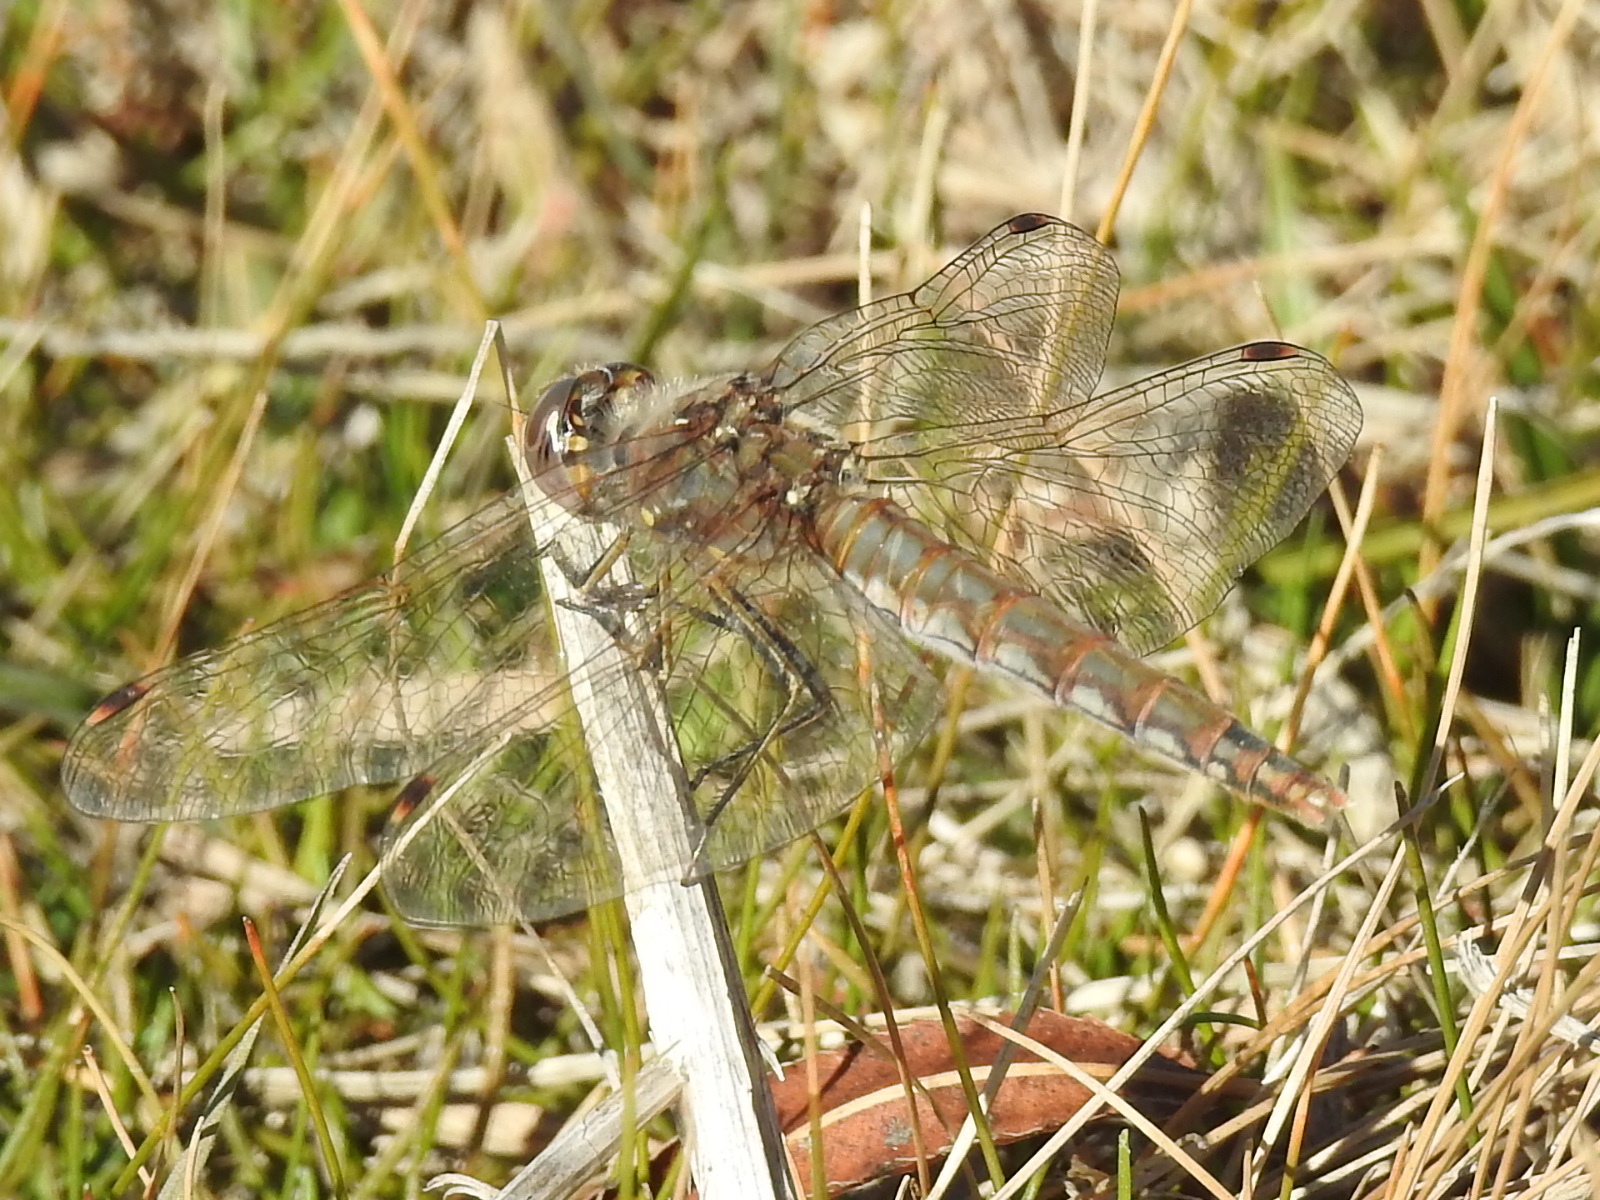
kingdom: Animalia
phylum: Arthropoda
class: Insecta
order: Odonata
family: Libellulidae
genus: Sympetrum
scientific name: Sympetrum corruptum
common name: Variegated meadowhawk
